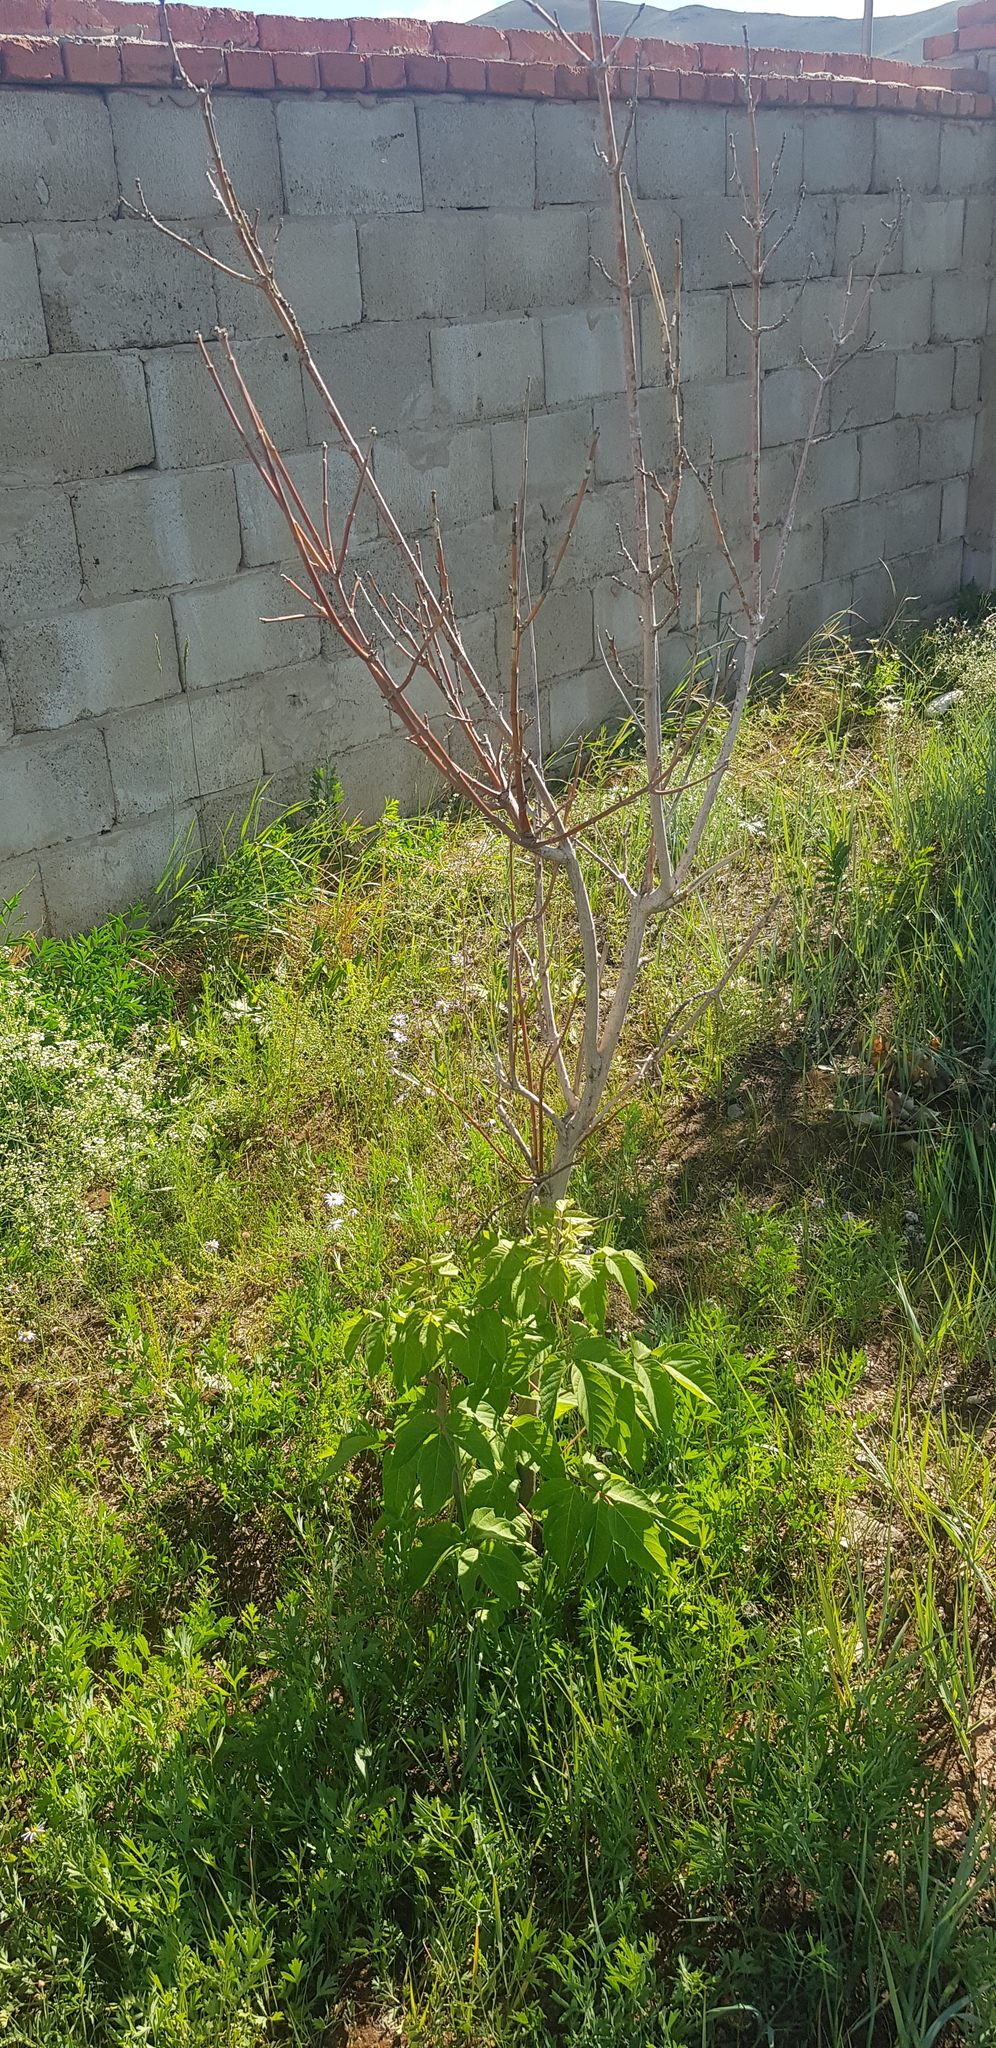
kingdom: Plantae
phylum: Tracheophyta
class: Magnoliopsida
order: Sapindales
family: Sapindaceae
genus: Acer
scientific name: Acer negundo
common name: Ashleaf maple
